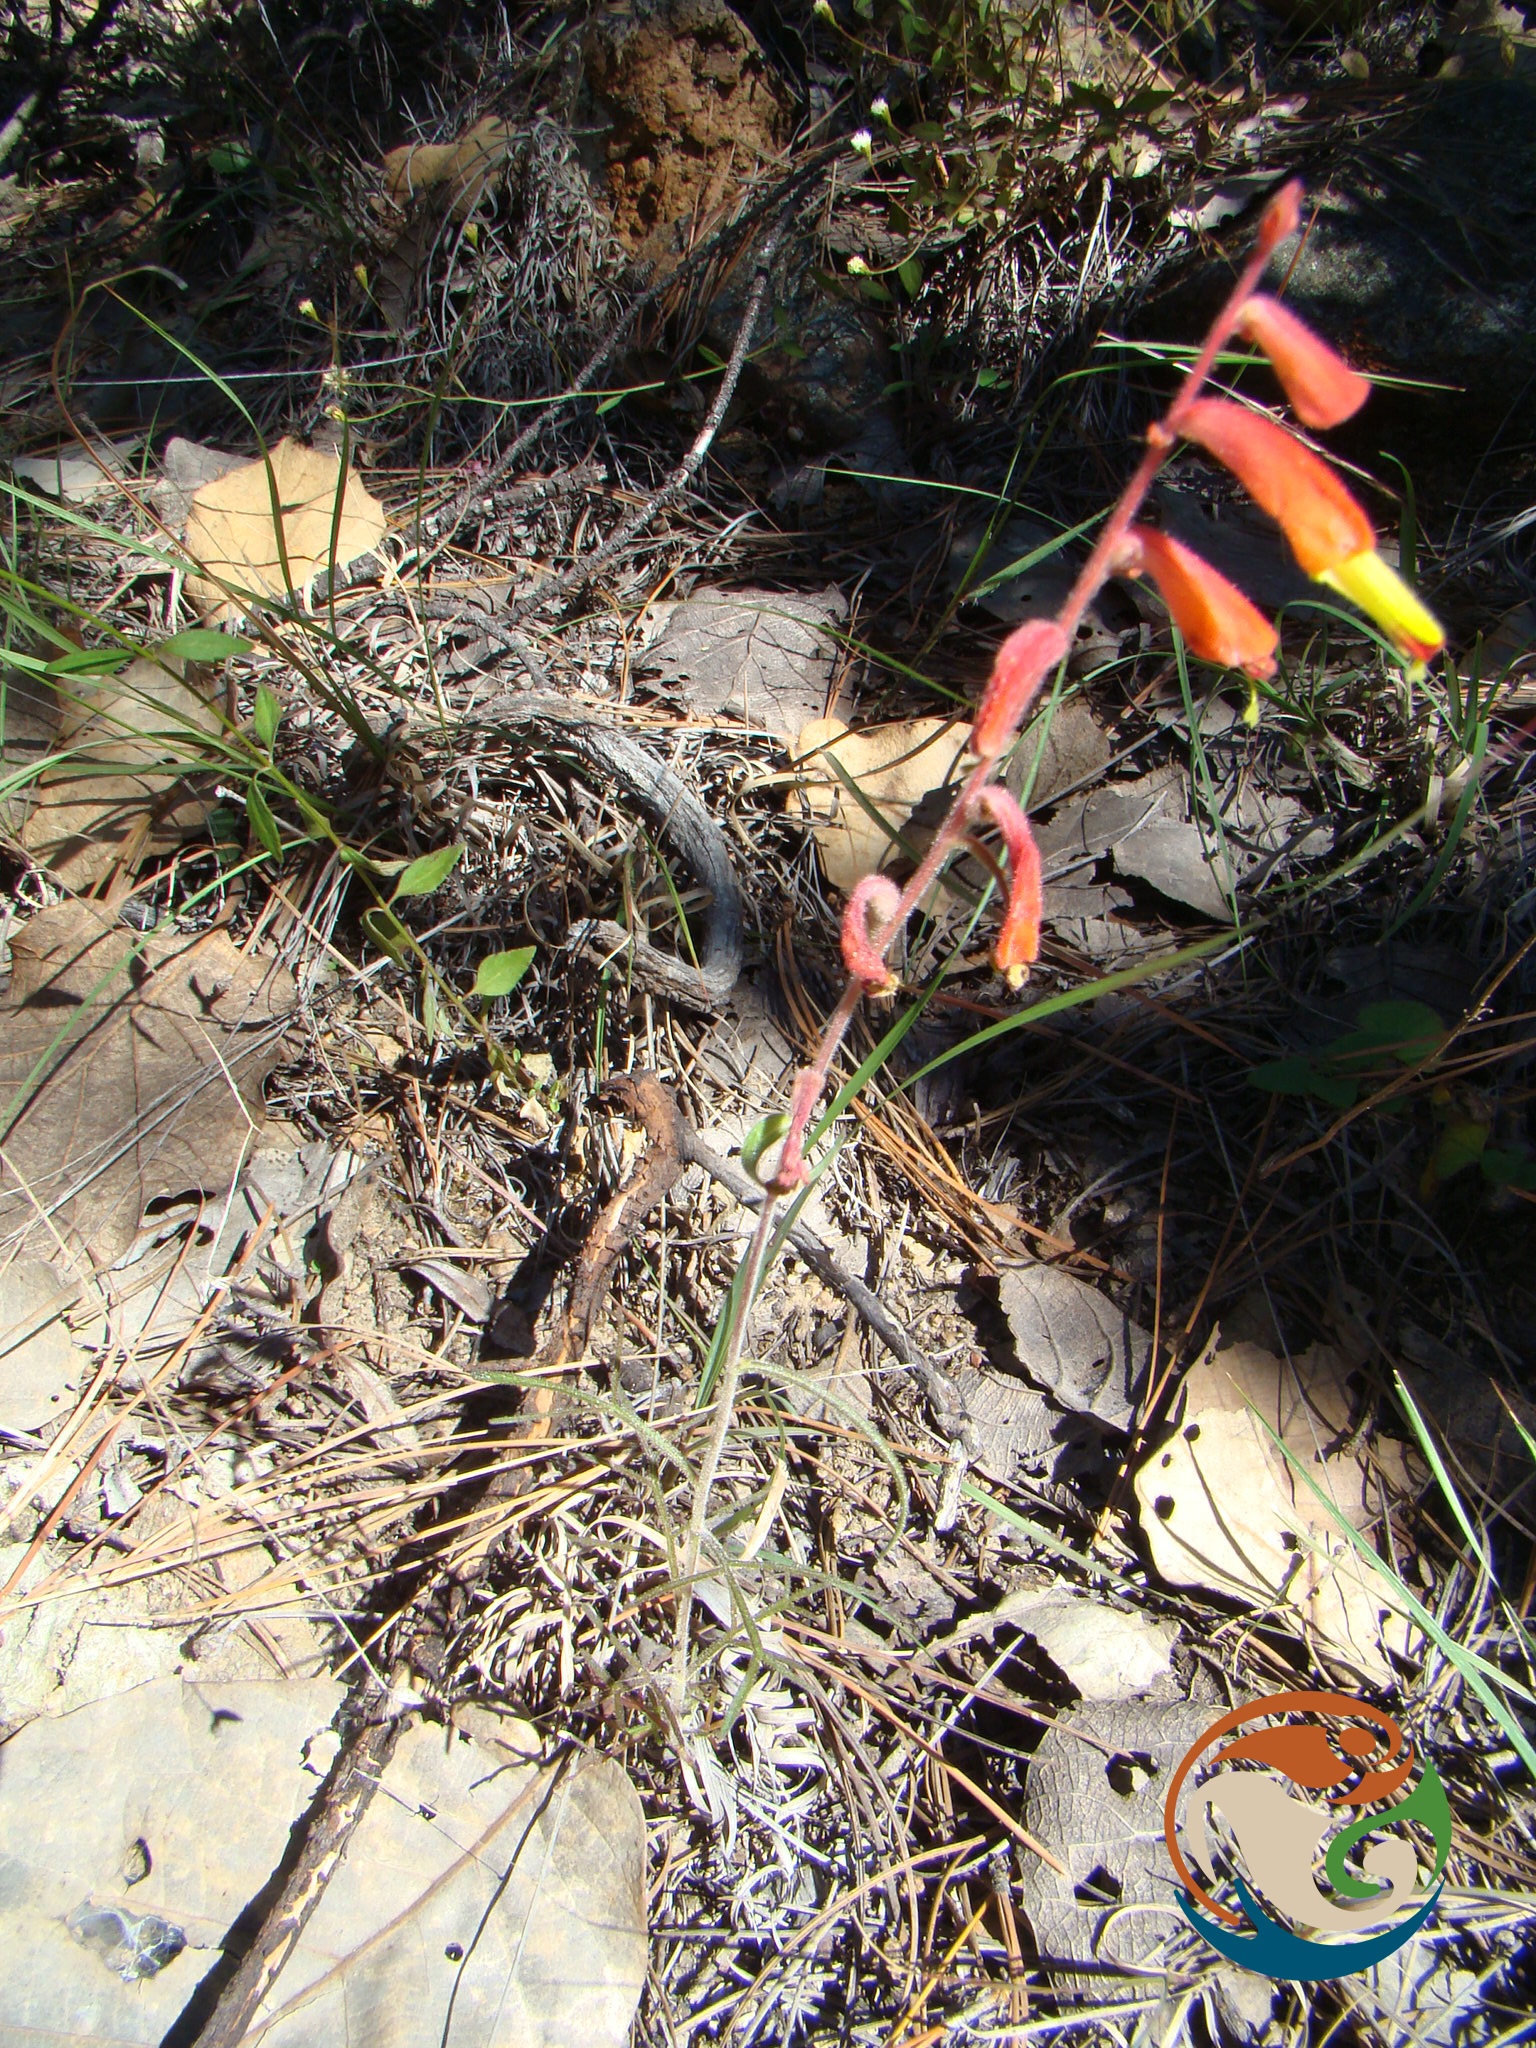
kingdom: Plantae
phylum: Tracheophyta
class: Magnoliopsida
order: Lamiales
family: Orobanchaceae
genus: Castilleja
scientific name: Castilleja tenuifolia
